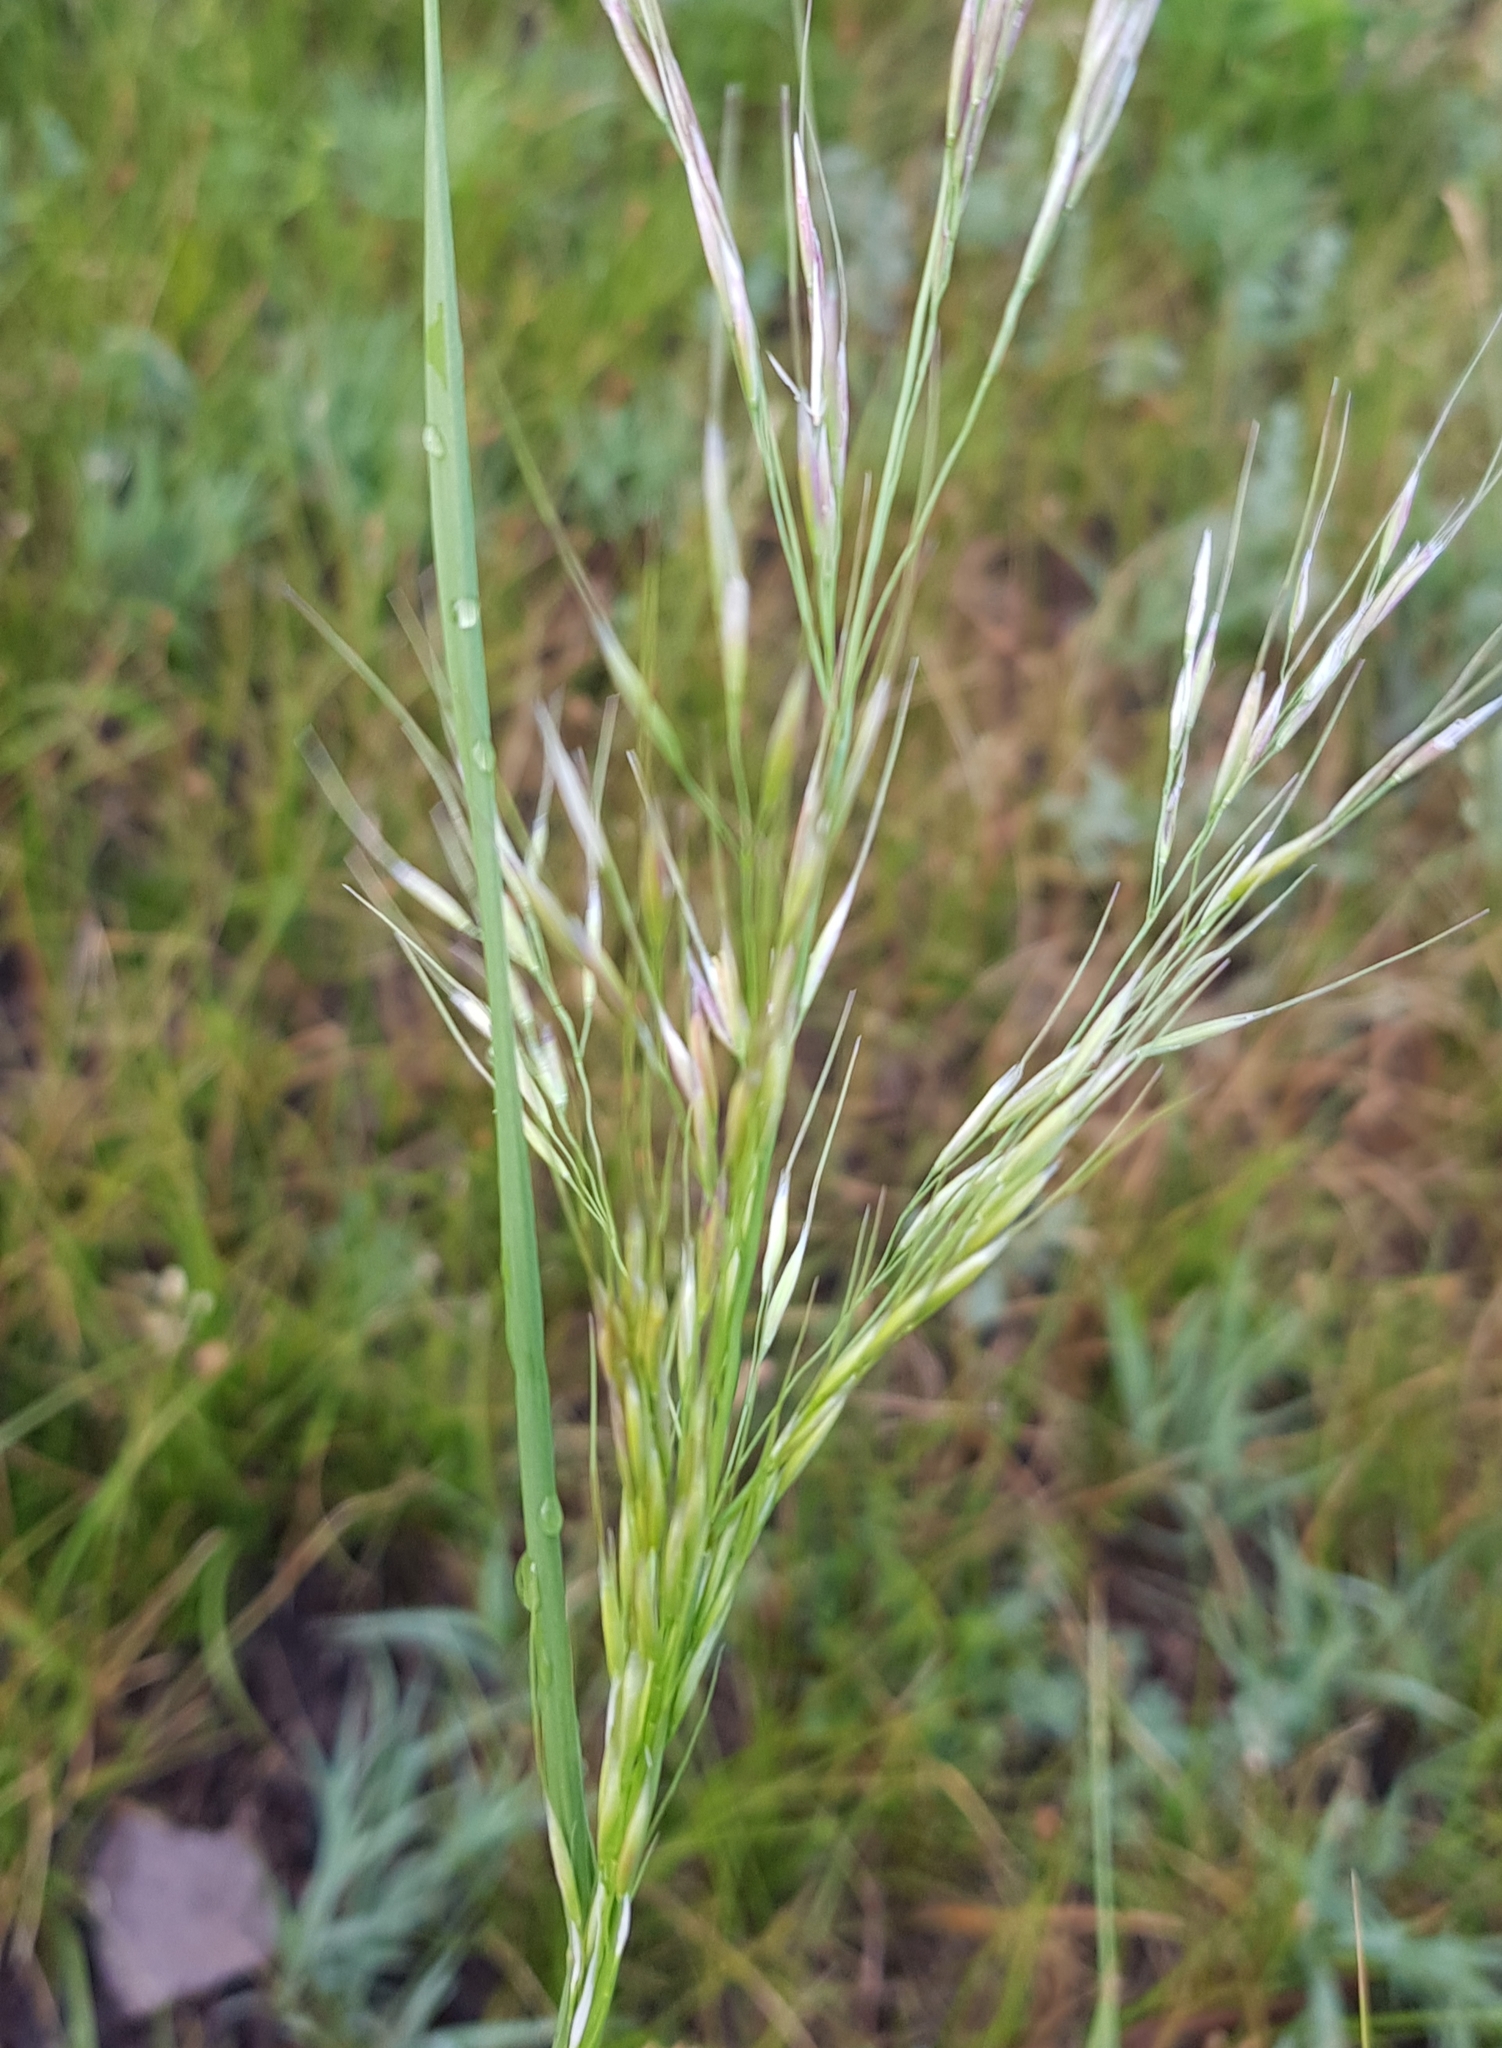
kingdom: Plantae
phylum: Tracheophyta
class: Liliopsida
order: Poales
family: Poaceae
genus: Achnatherum
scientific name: Achnatherum sibiricum
